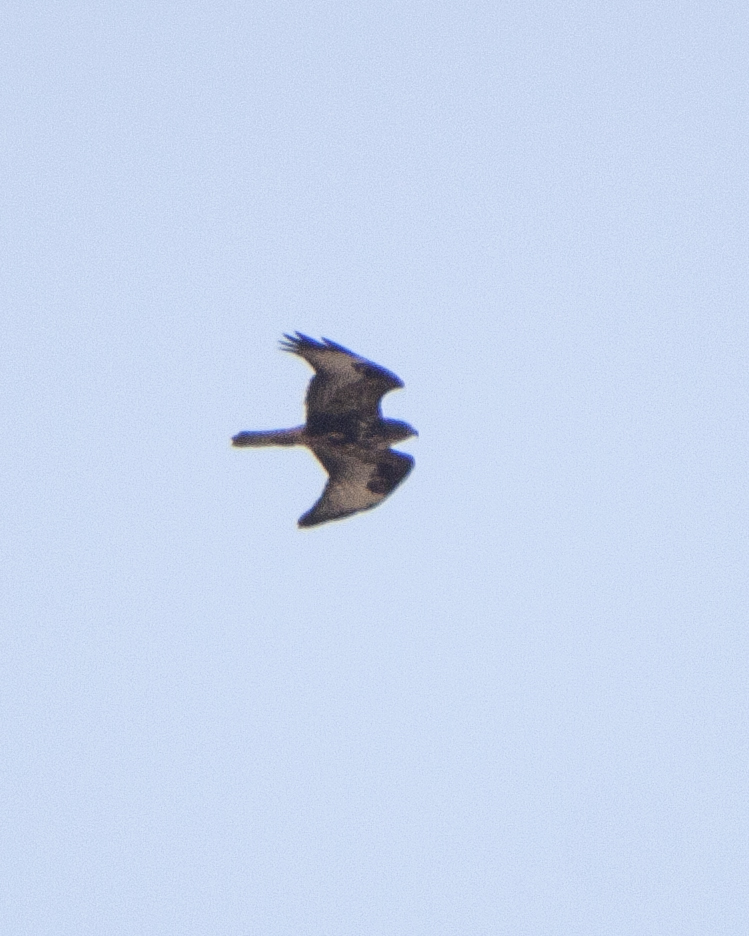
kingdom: Animalia
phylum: Chordata
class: Aves
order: Accipitriformes
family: Accipitridae
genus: Buteo
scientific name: Buteo buteo
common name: Common buzzard
